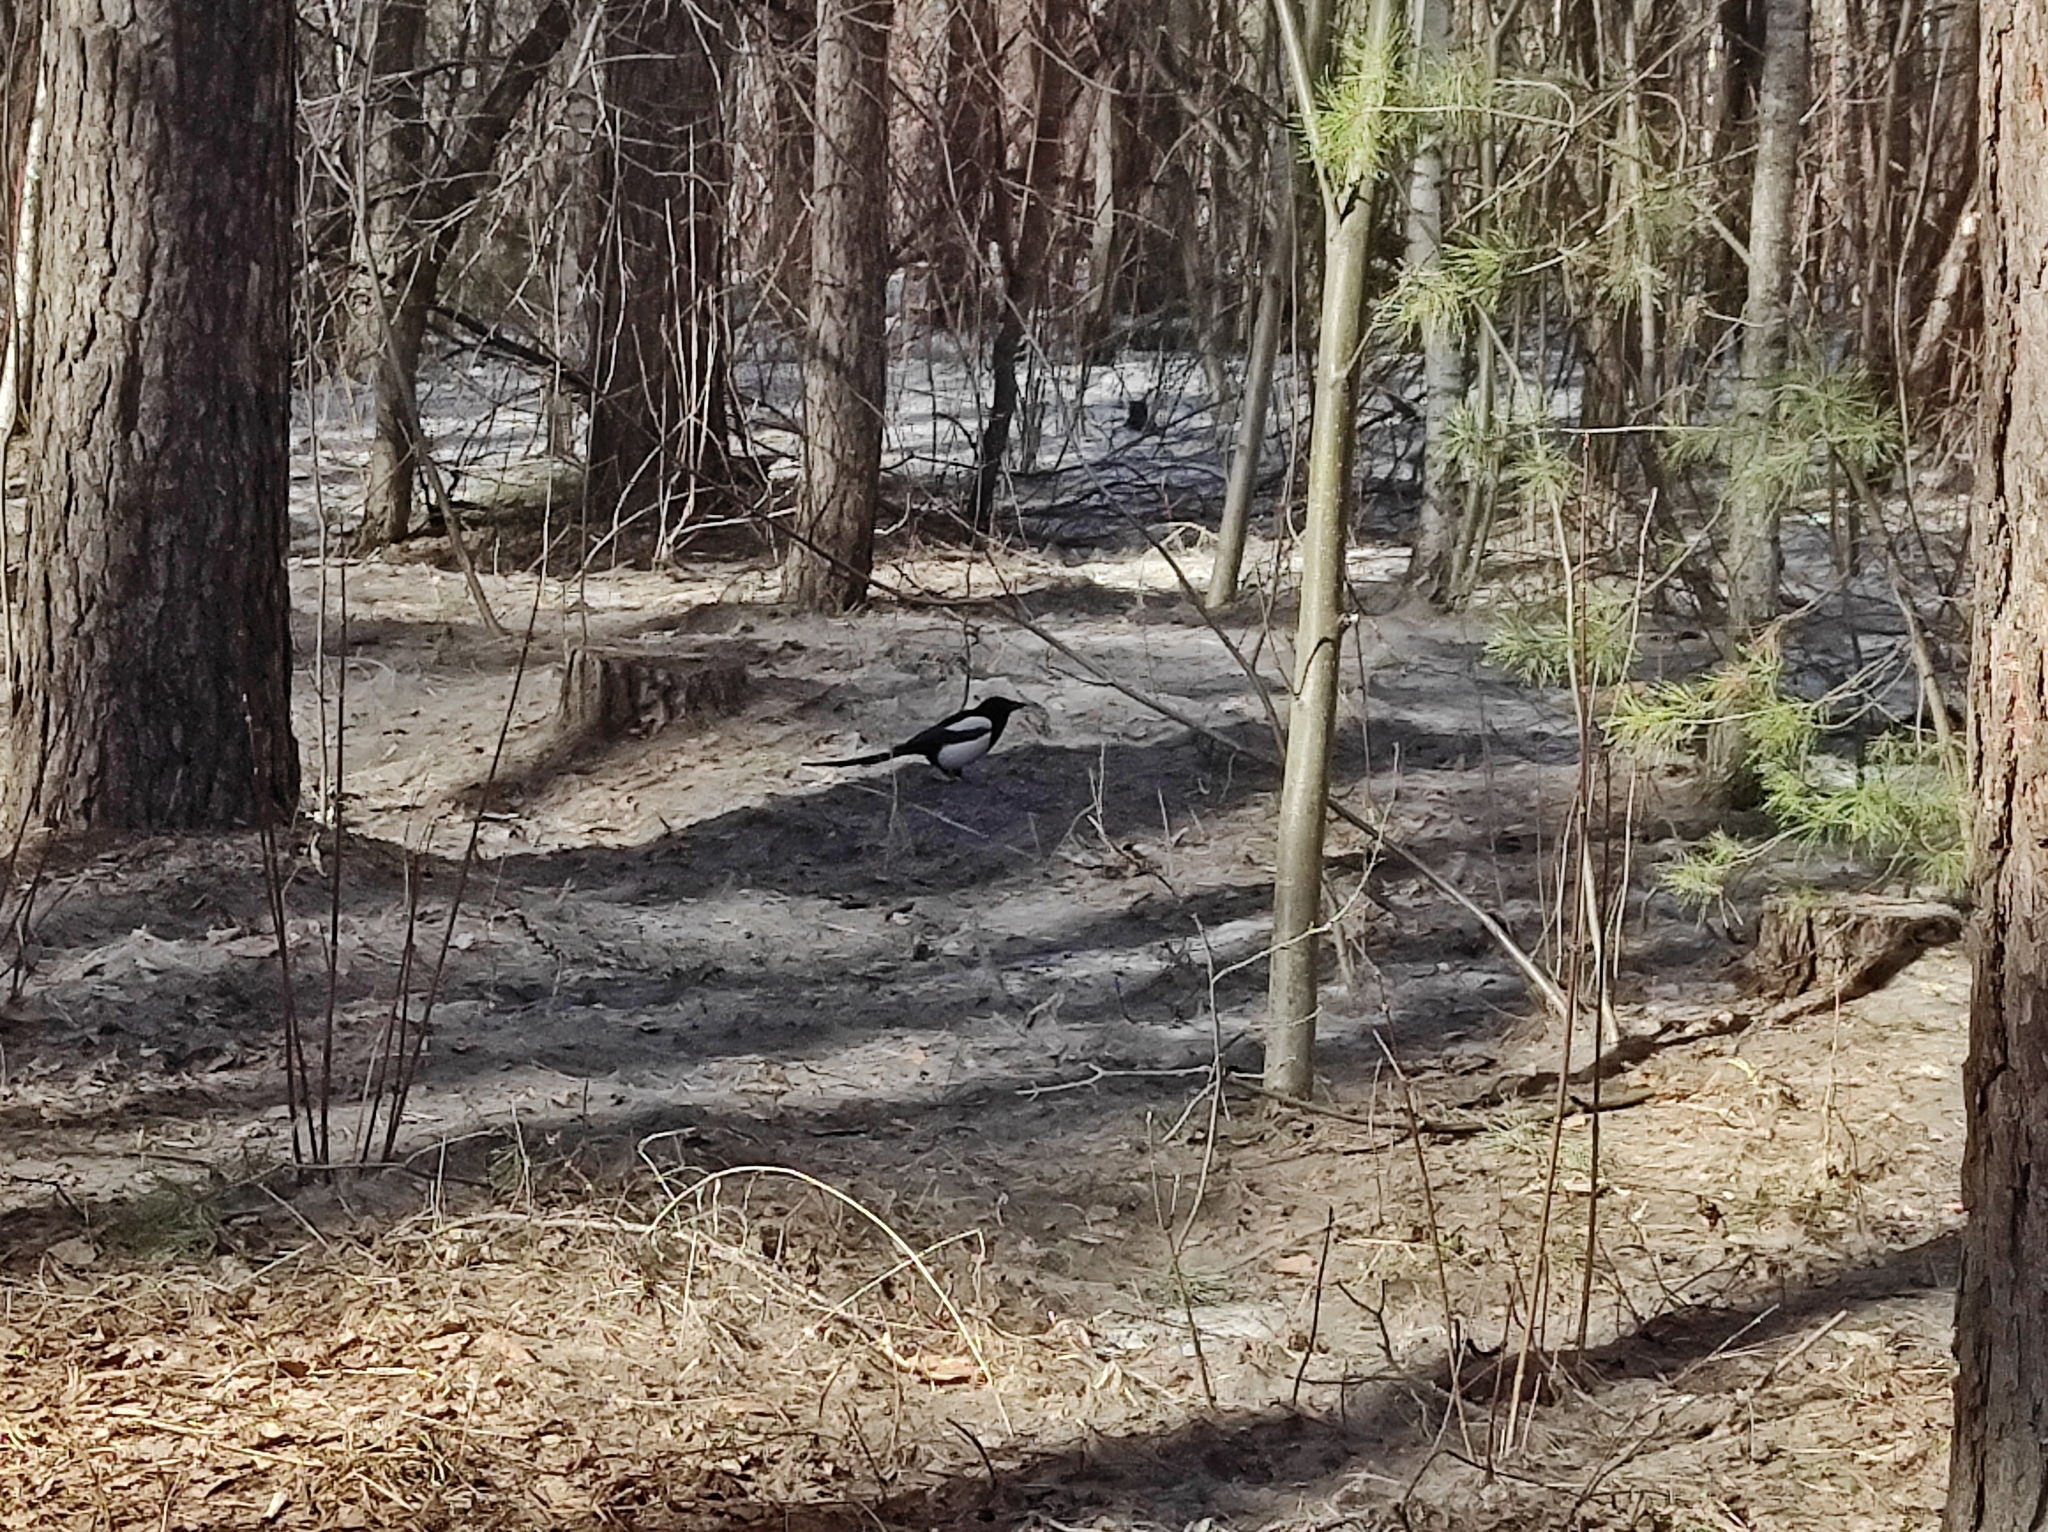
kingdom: Animalia
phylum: Chordata
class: Aves
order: Passeriformes
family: Corvidae
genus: Pica
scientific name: Pica pica
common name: Eurasian magpie
